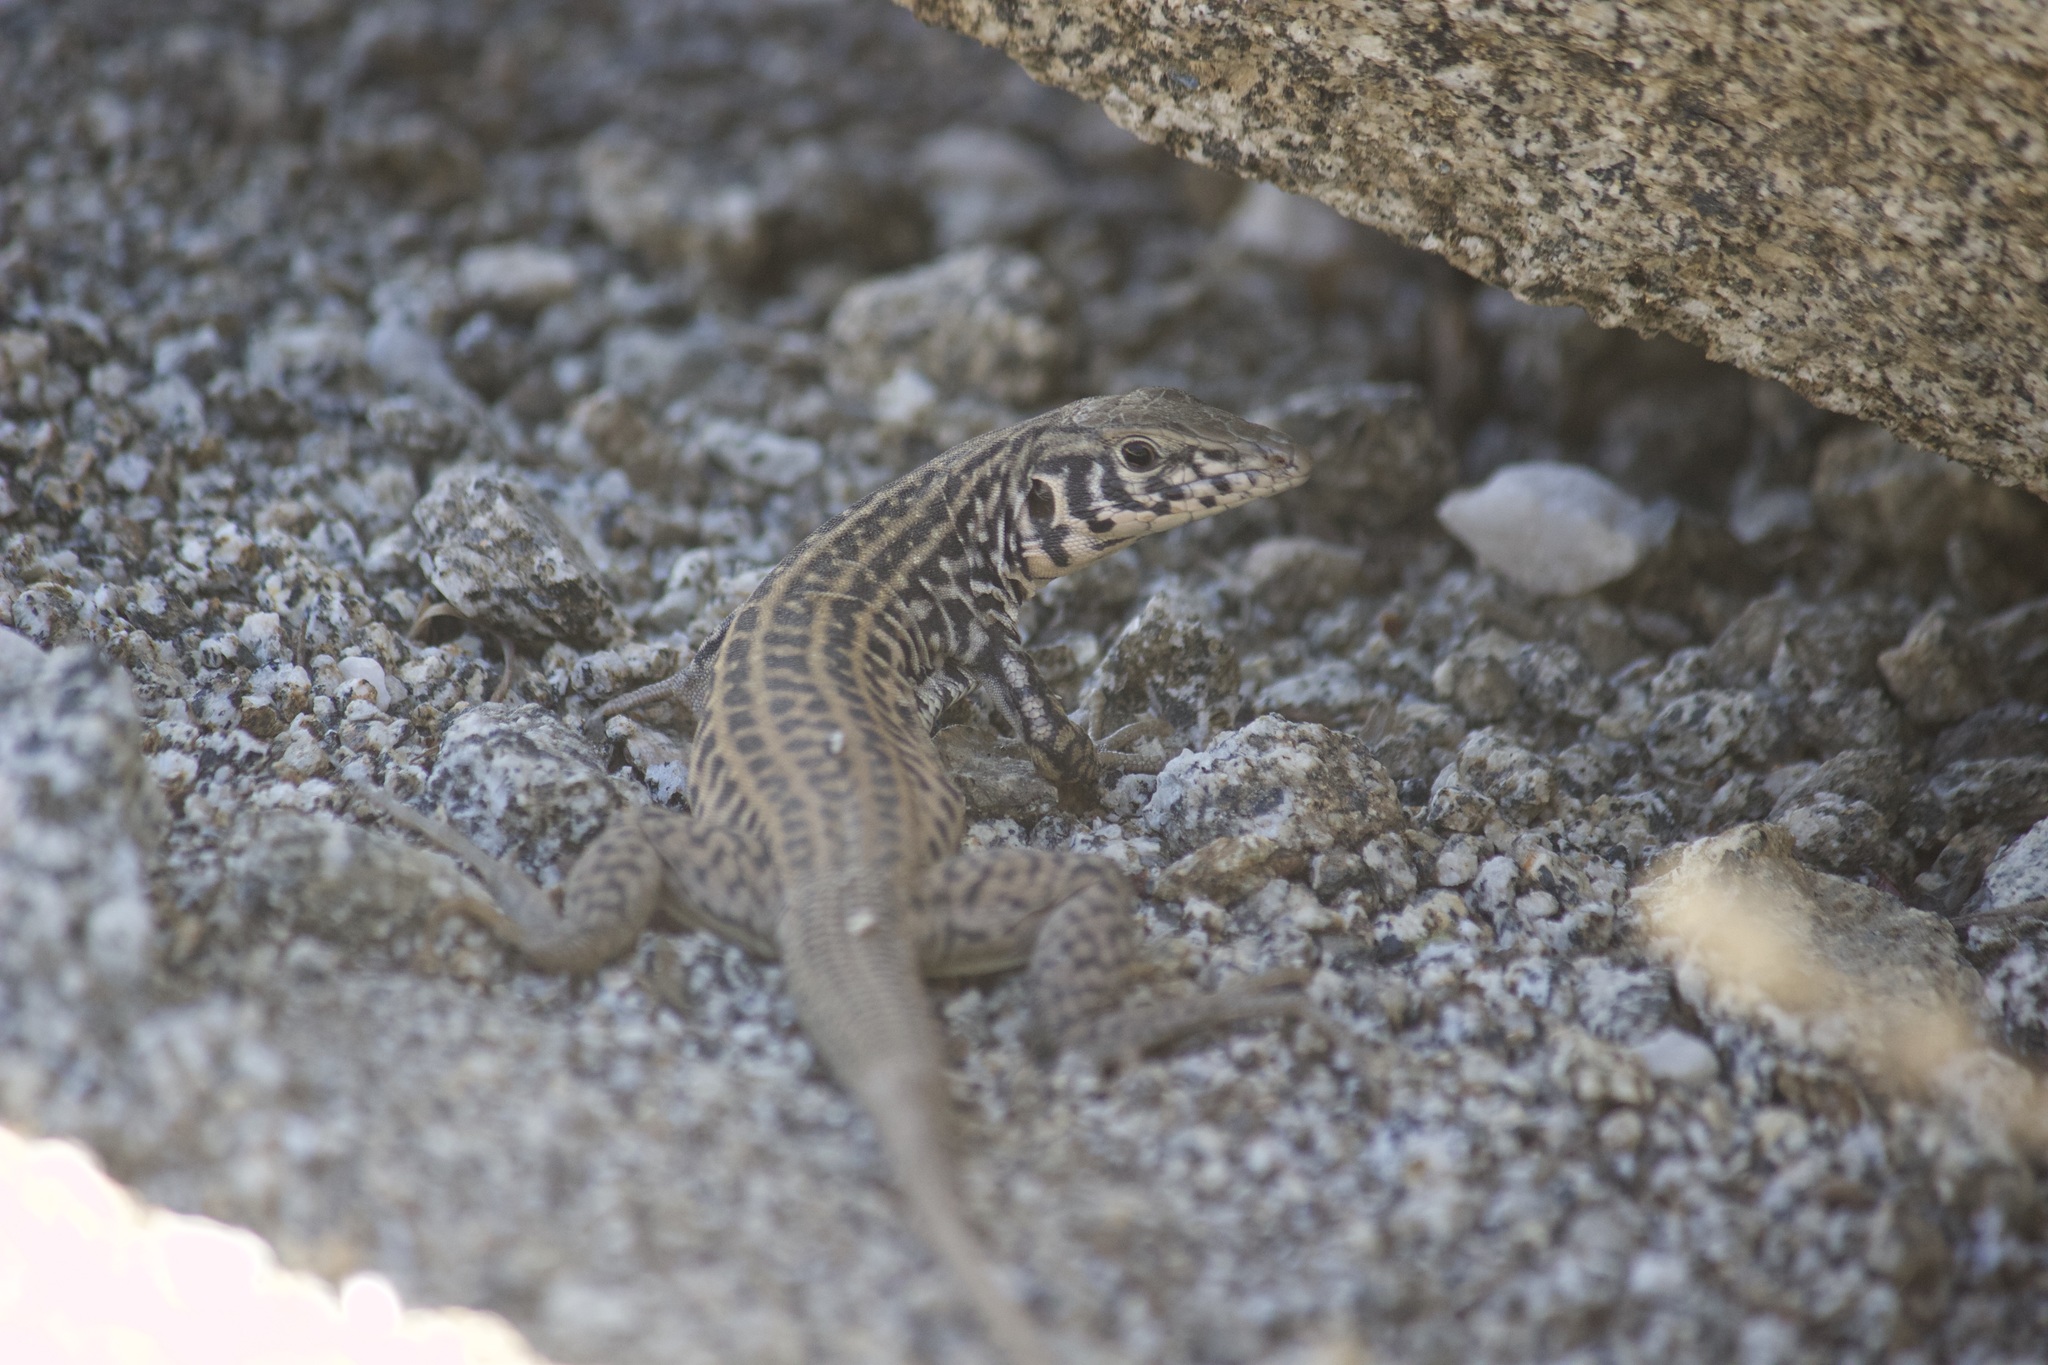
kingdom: Animalia
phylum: Chordata
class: Squamata
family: Teiidae
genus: Aspidoscelis
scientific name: Aspidoscelis tigris
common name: Tiger whiptail
